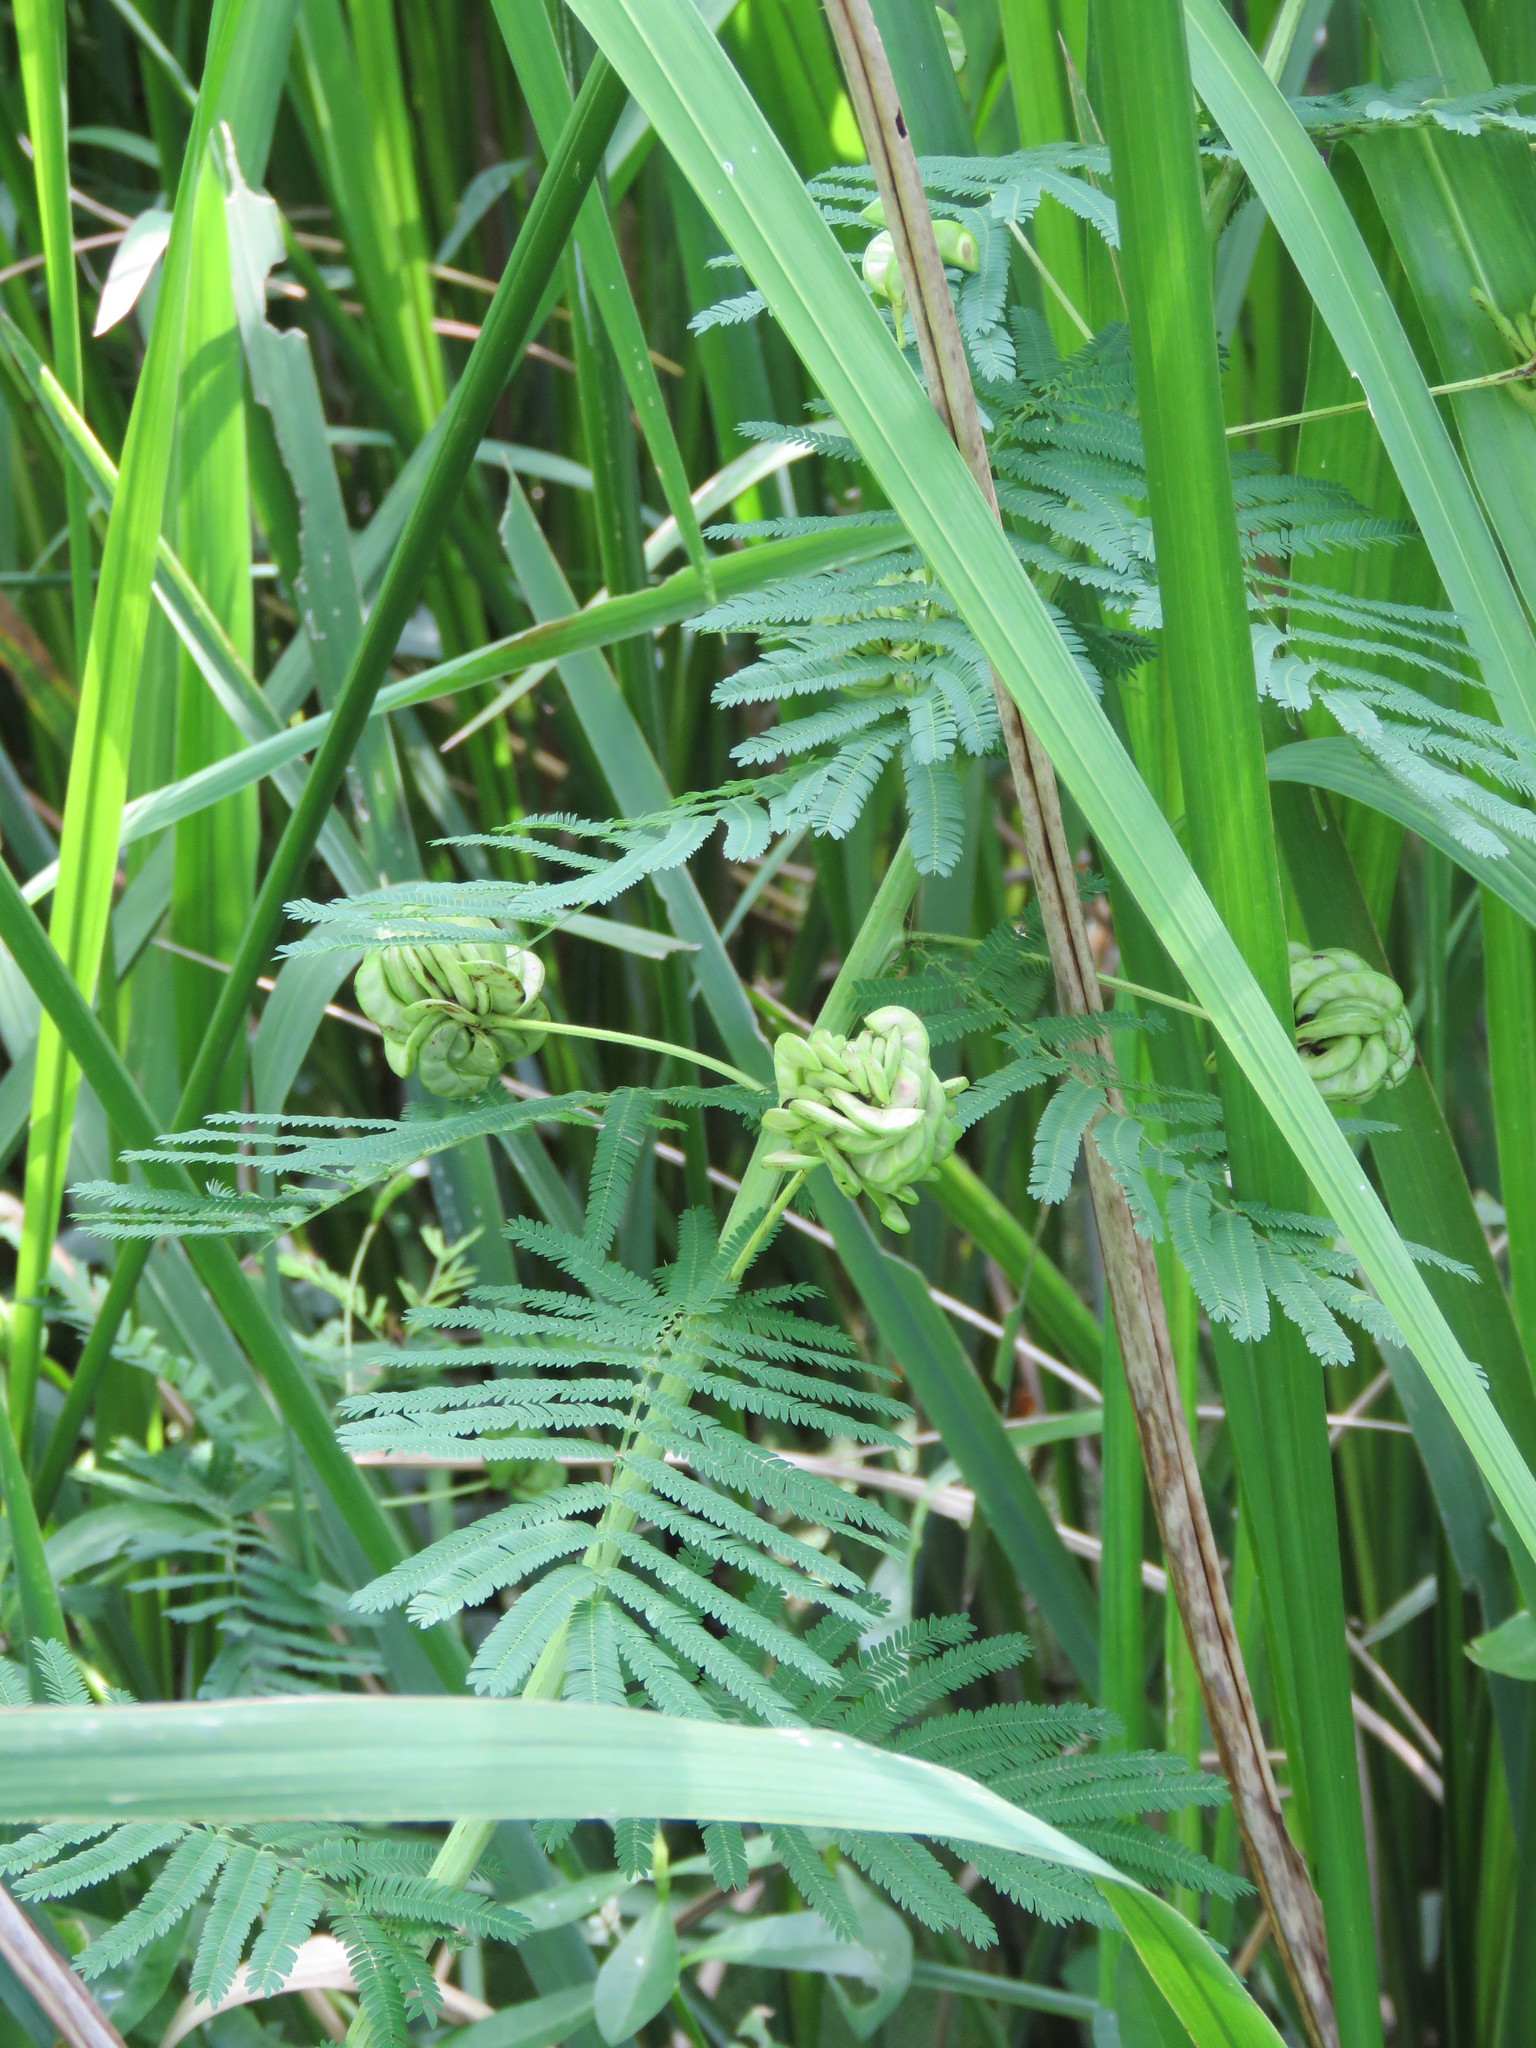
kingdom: Plantae
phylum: Tracheophyta
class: Magnoliopsida
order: Fabales
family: Fabaceae
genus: Desmanthus
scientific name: Desmanthus illinoensis
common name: Illinois bundle-flower
